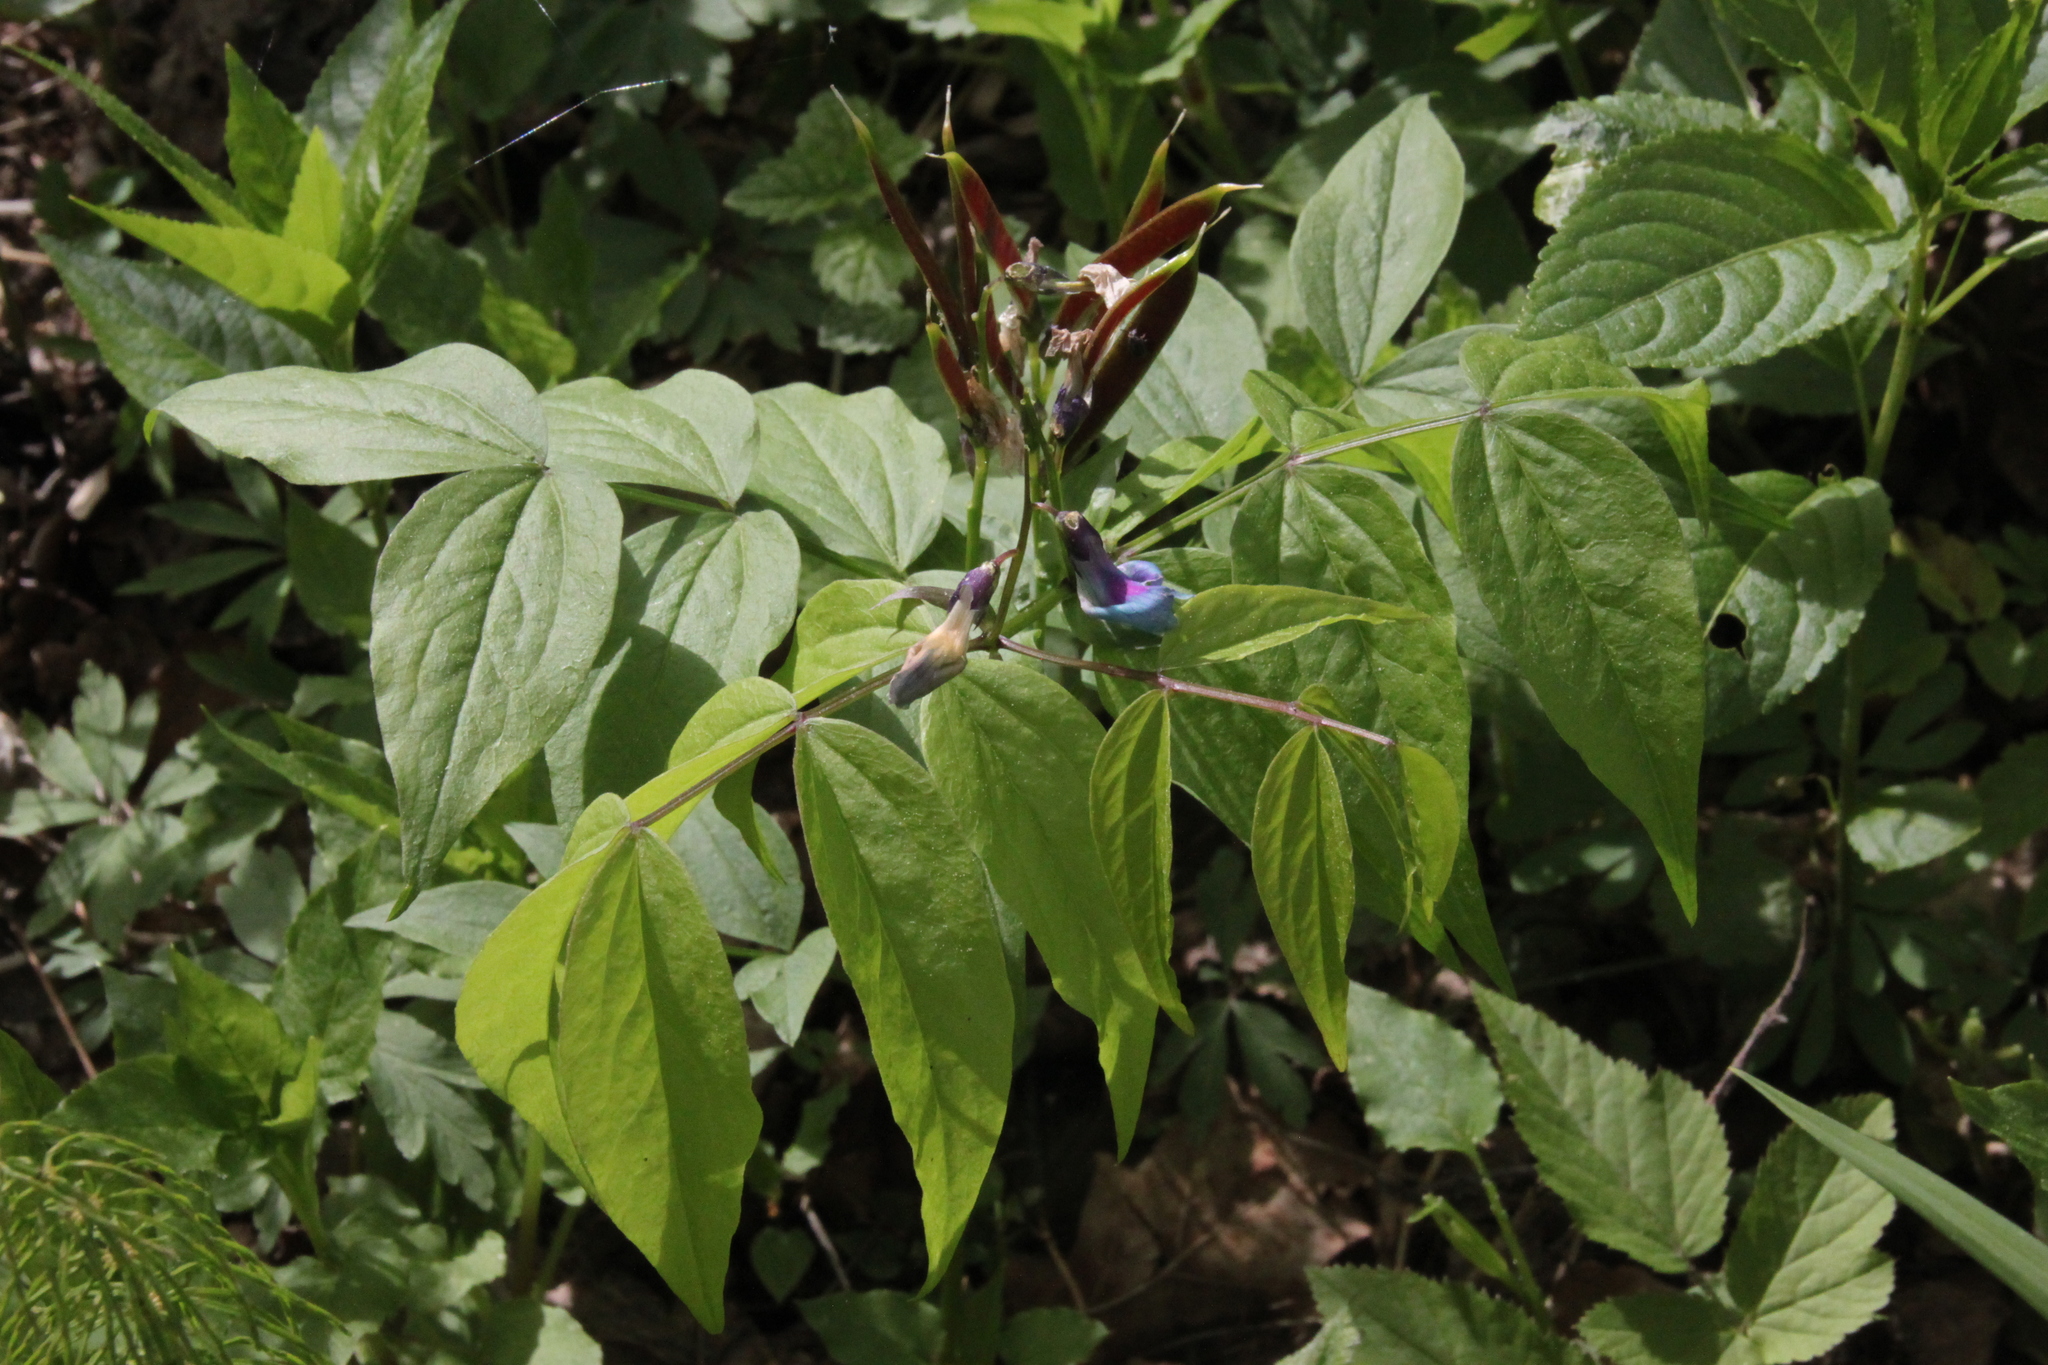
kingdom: Plantae
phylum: Tracheophyta
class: Magnoliopsida
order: Fabales
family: Fabaceae
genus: Lathyrus
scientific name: Lathyrus vernus
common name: Spring pea
